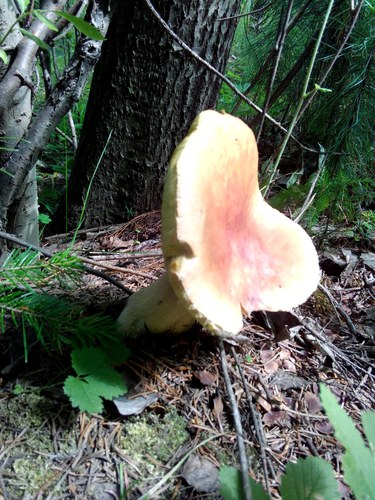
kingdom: Fungi
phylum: Basidiomycota
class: Agaricomycetes
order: Boletales
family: Boletaceae
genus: Boletus
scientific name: Boletus edulis
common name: Cep
